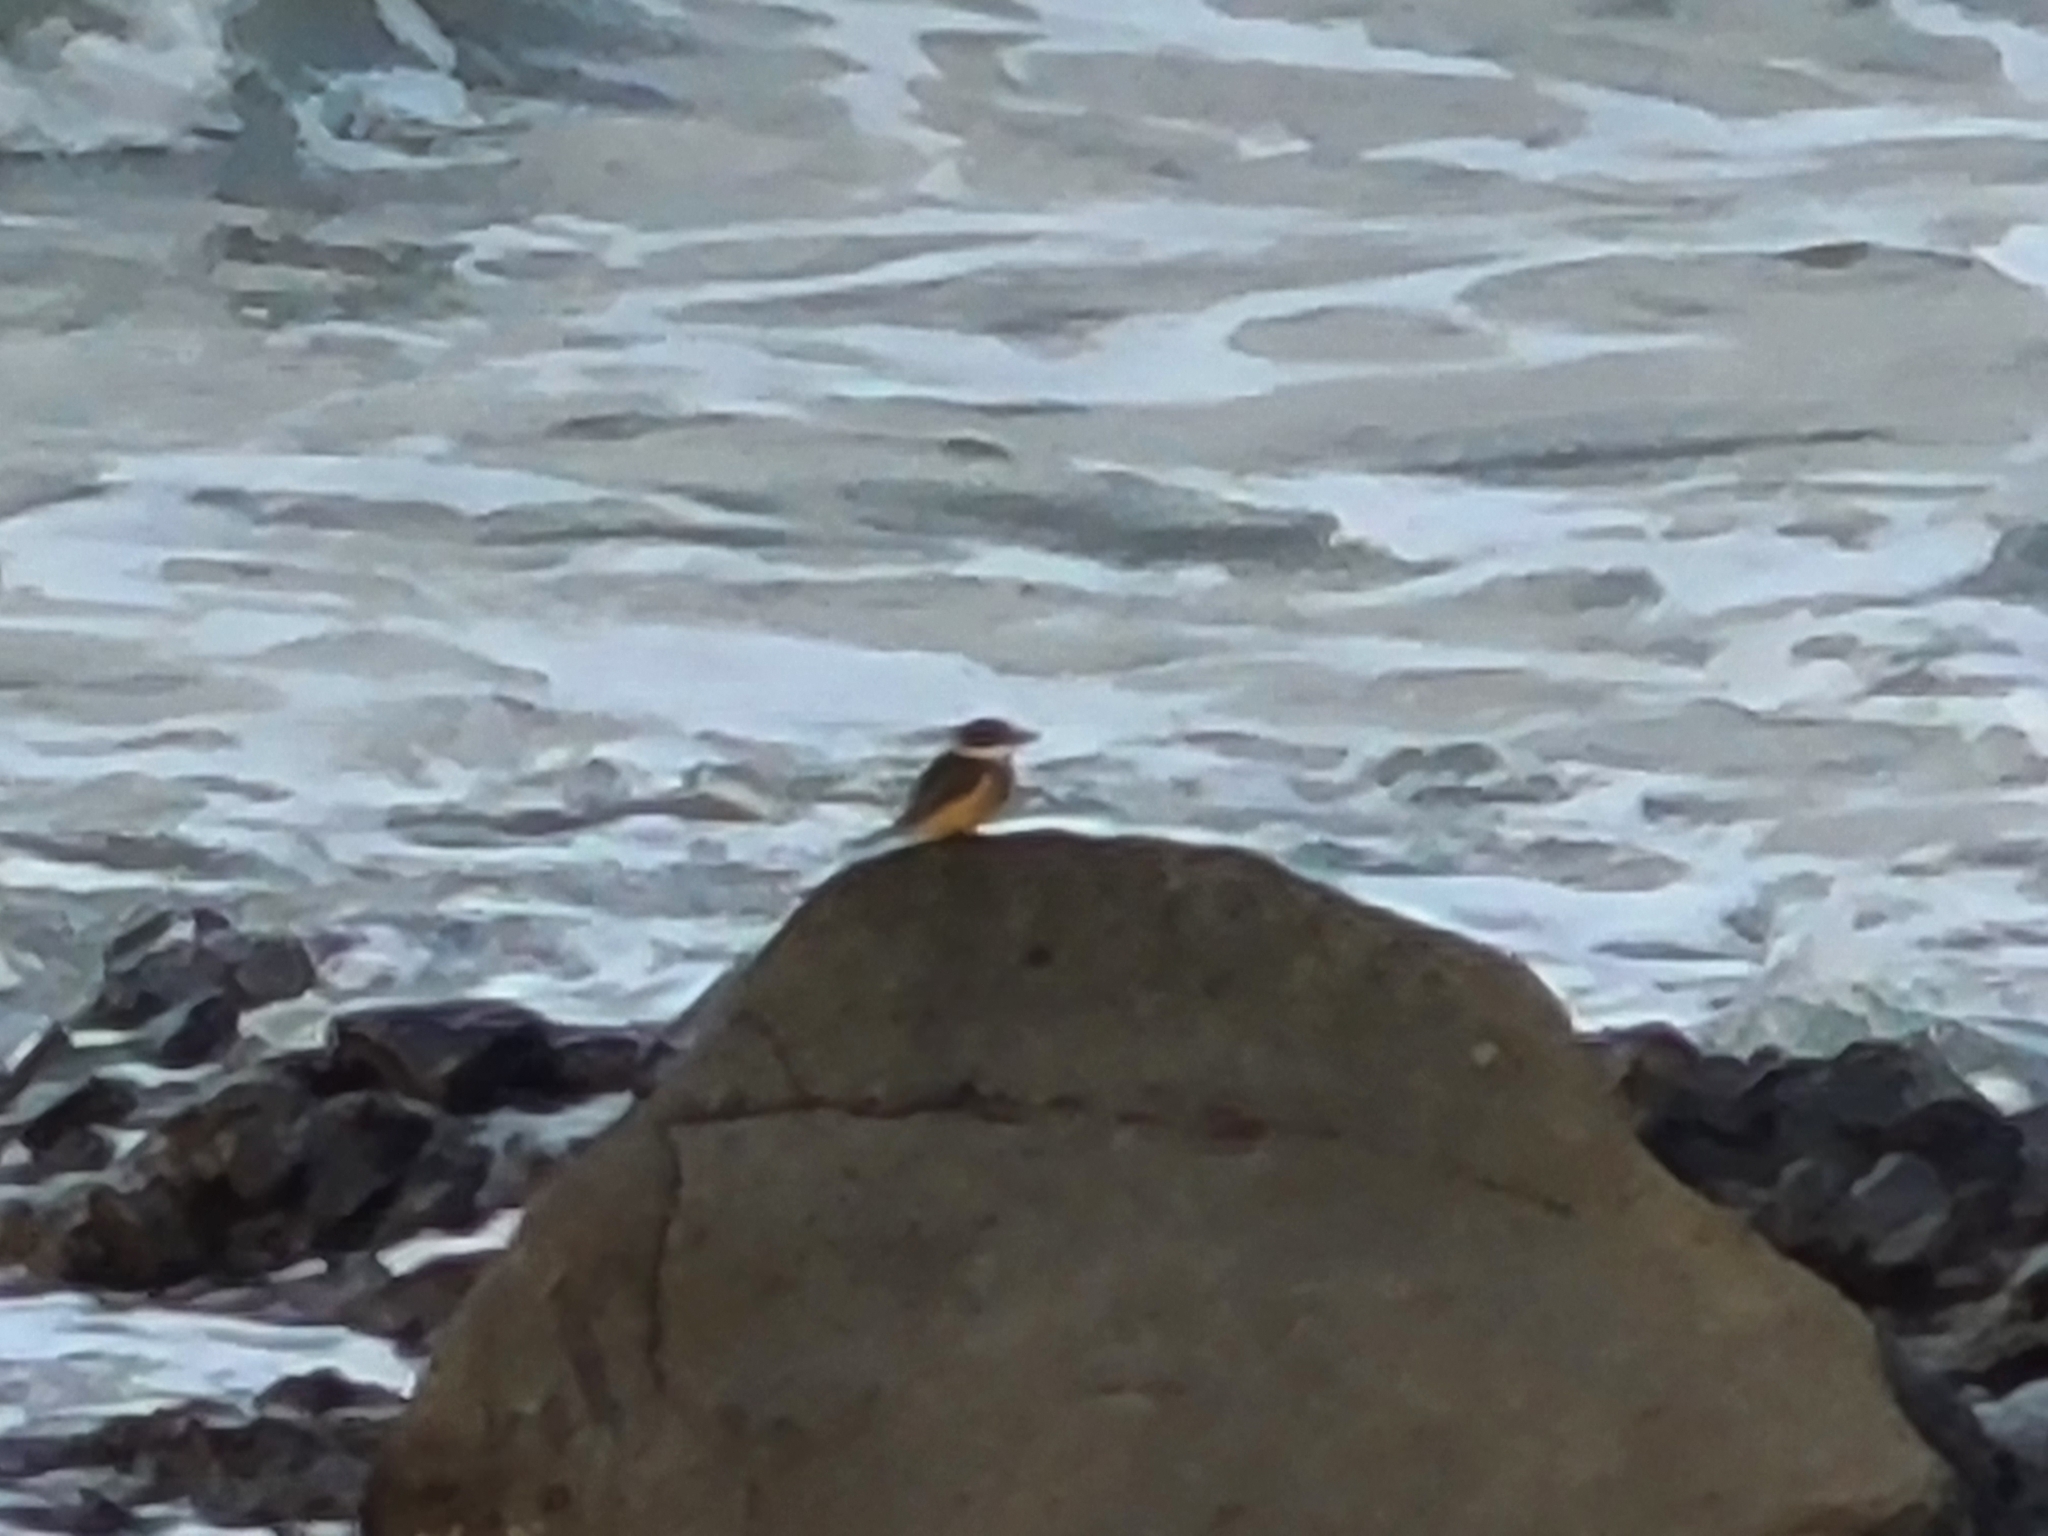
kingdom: Animalia
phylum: Chordata
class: Aves
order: Coraciiformes
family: Alcedinidae
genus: Todiramphus
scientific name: Todiramphus sanctus
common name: Sacred kingfisher
